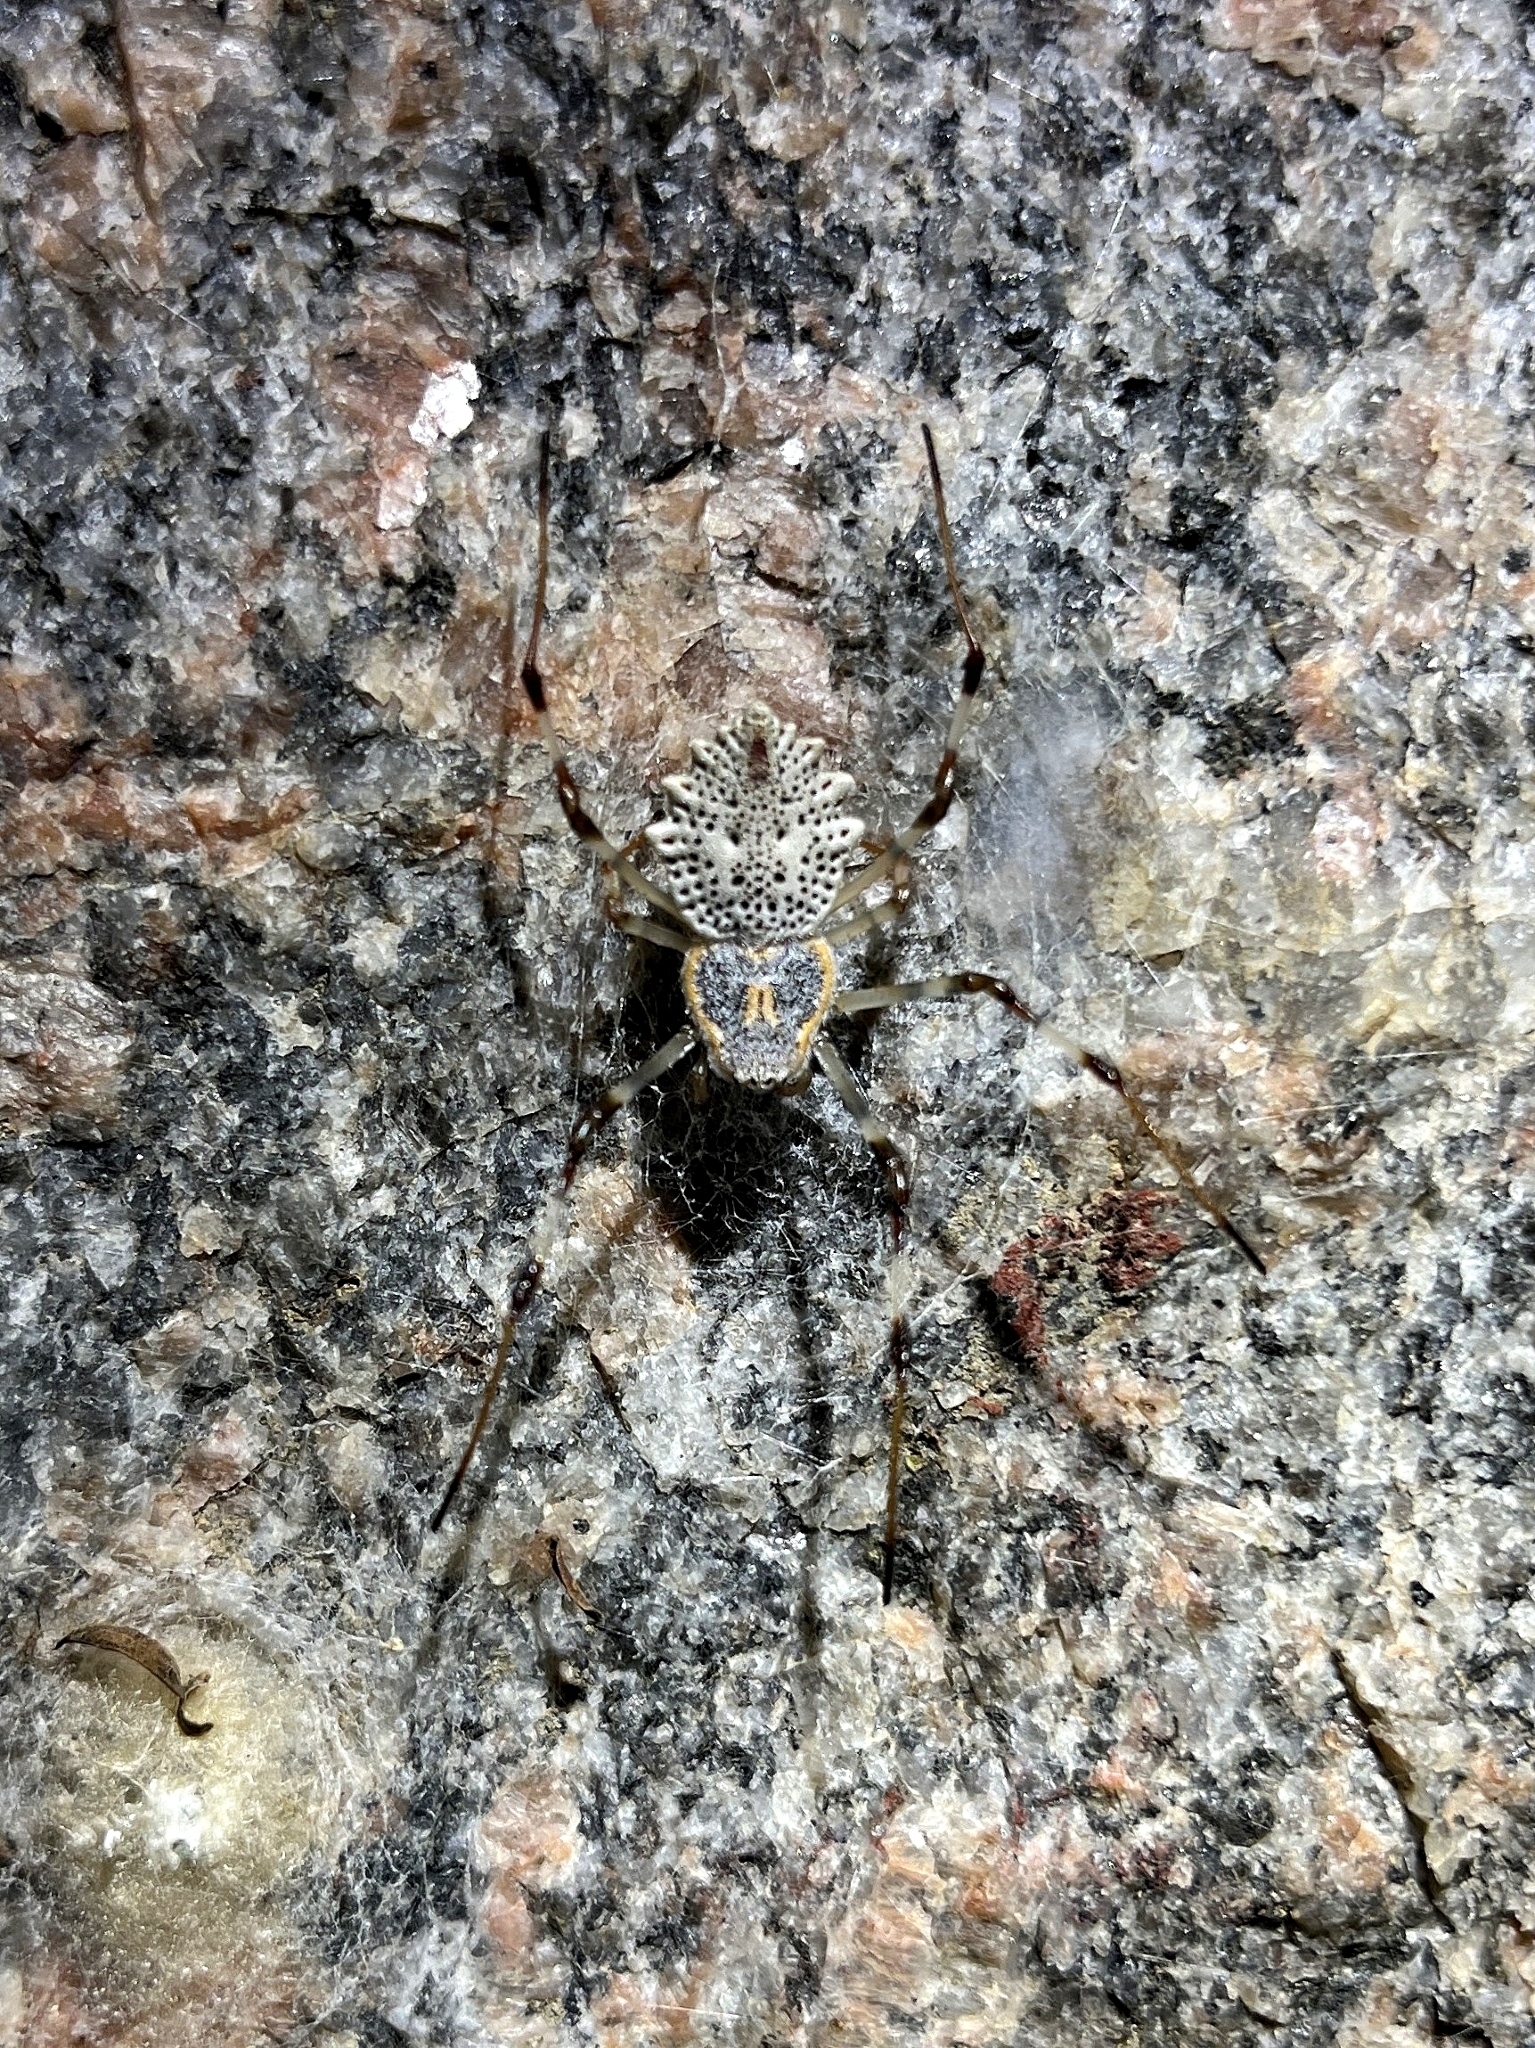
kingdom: Animalia
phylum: Arthropoda
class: Arachnida
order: Araneae
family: Araneidae
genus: Herennia
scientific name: Herennia multipuncta
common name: Spotted coin spider
